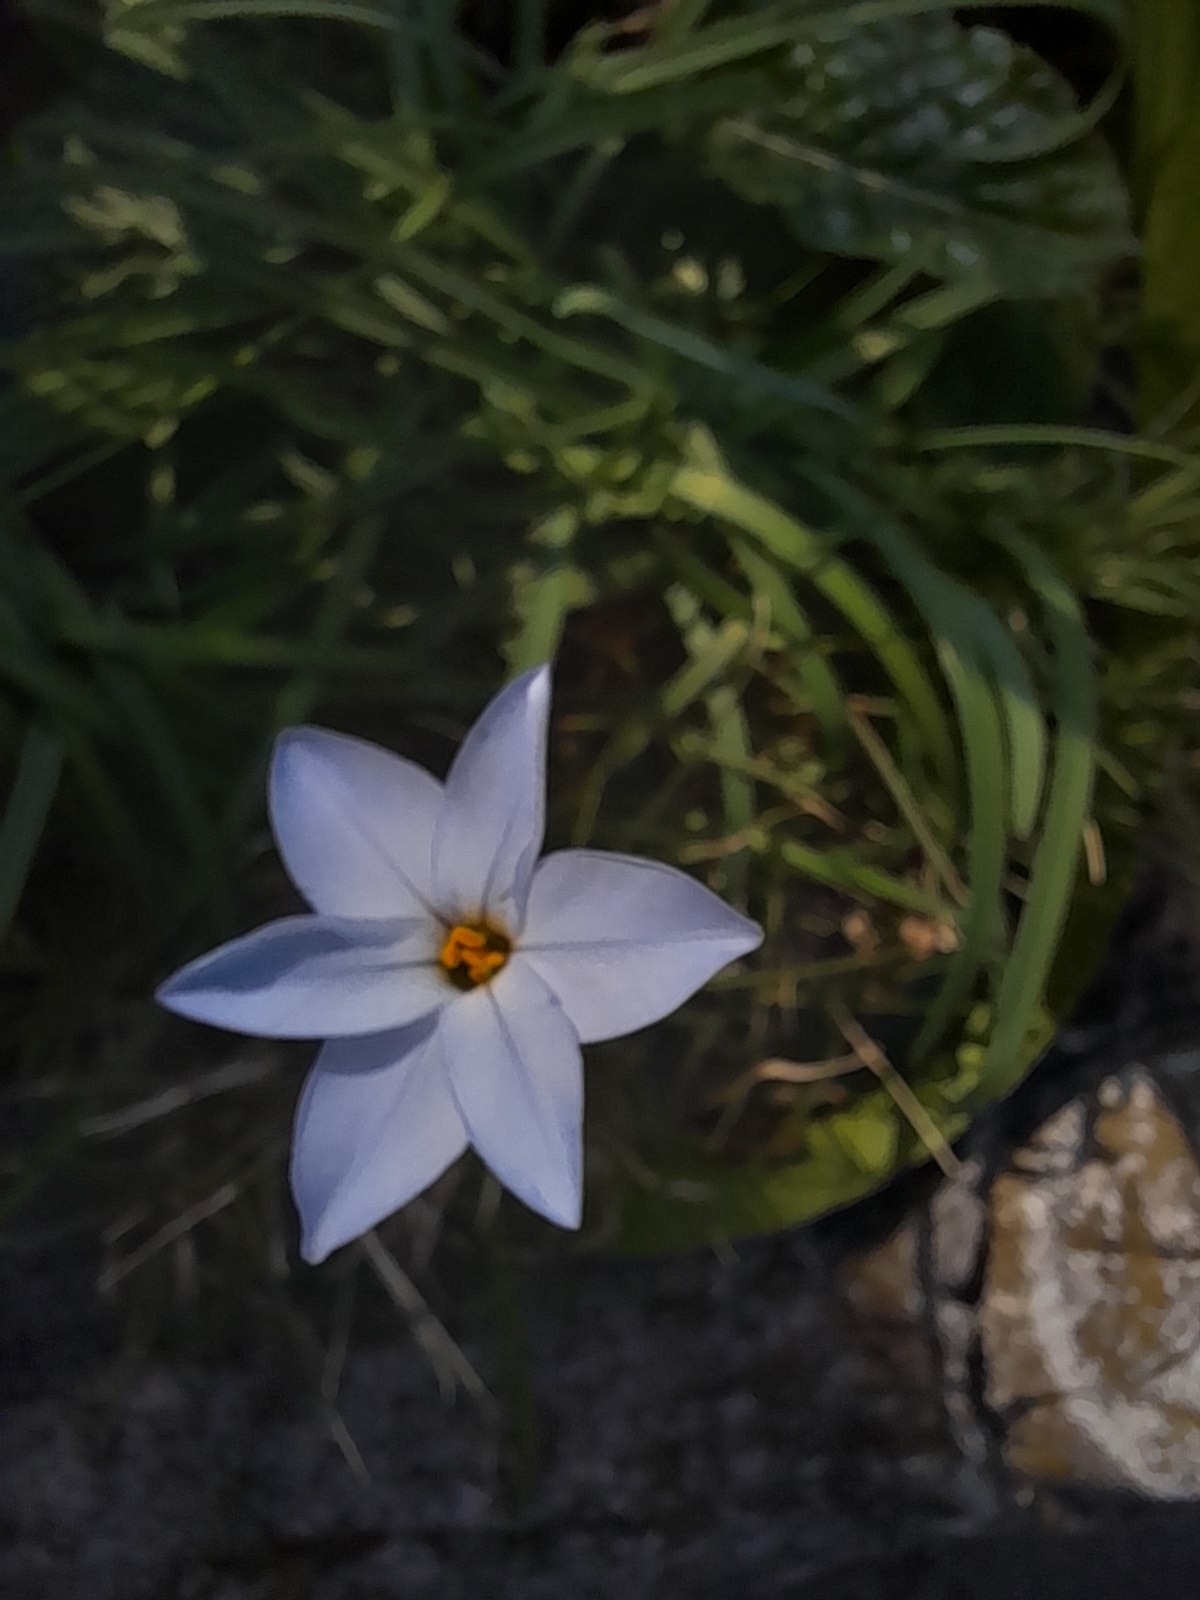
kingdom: Plantae
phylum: Tracheophyta
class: Liliopsida
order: Asparagales
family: Amaryllidaceae
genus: Ipheion
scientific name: Ipheion uniflorum
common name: Spring starflower
